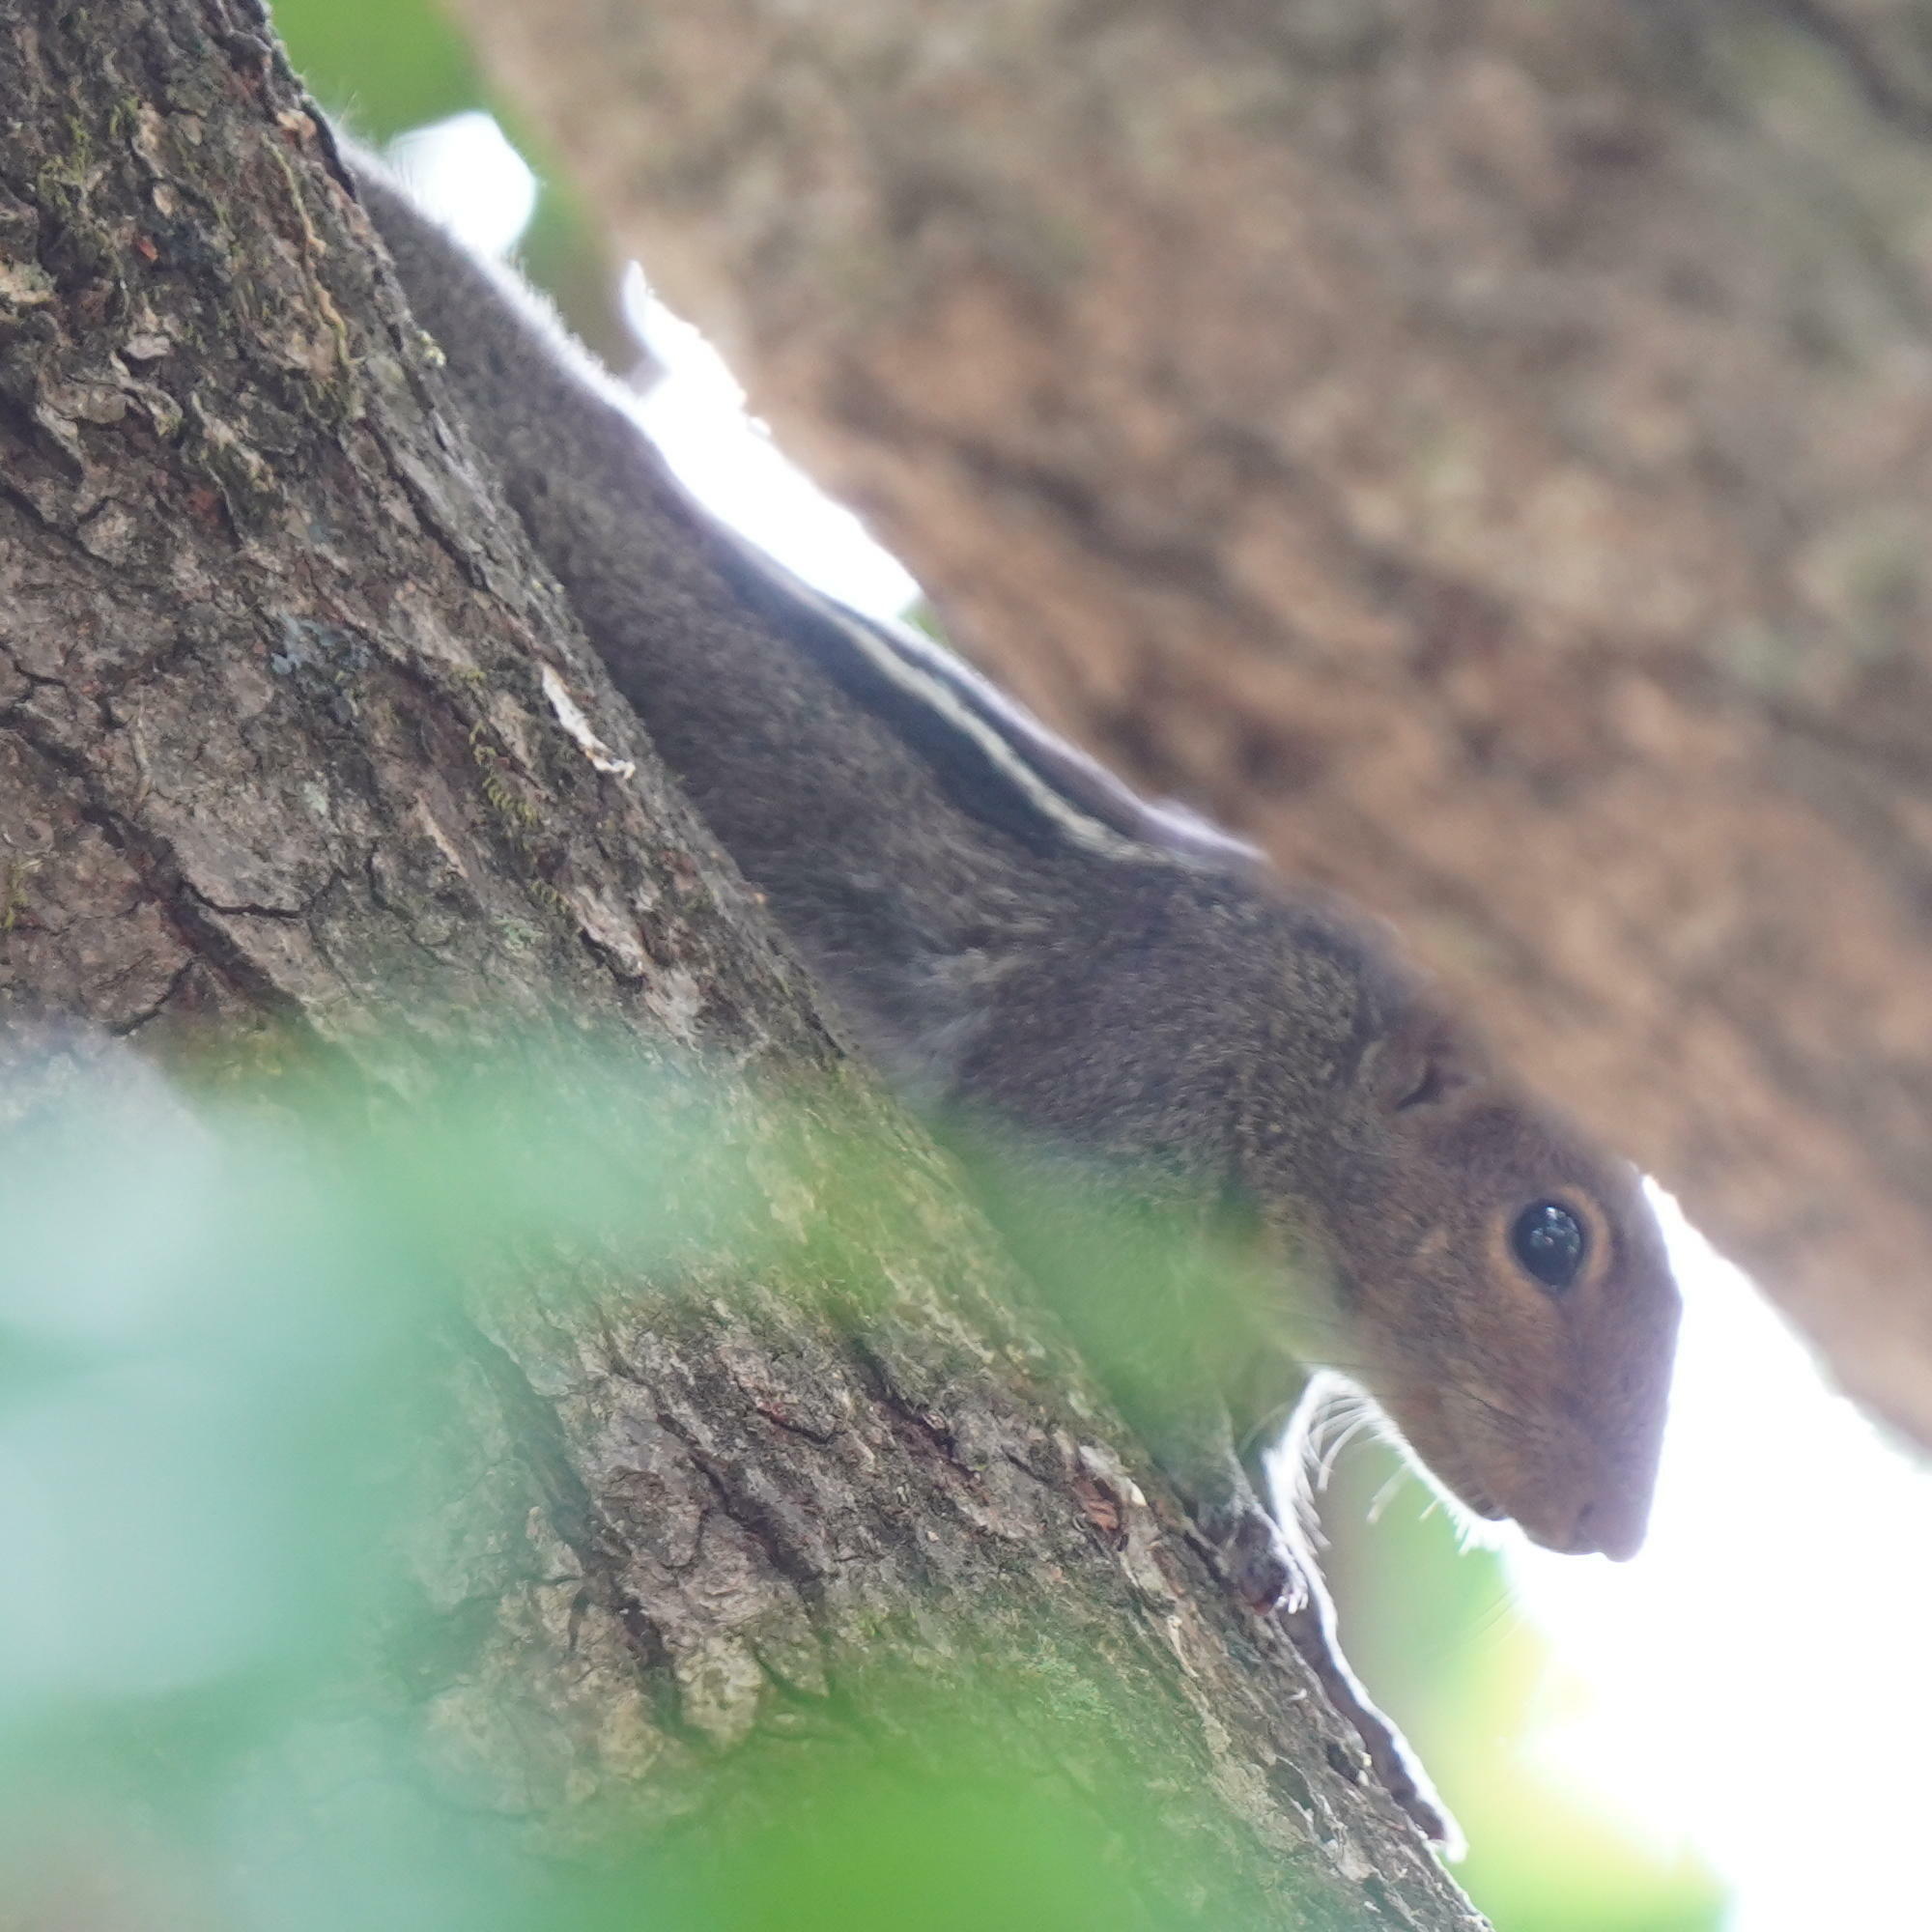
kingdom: Animalia
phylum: Chordata
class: Mammalia
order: Rodentia
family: Sciuridae
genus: Funambulus
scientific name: Funambulus tristriatus
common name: Jungle palm squirrel
